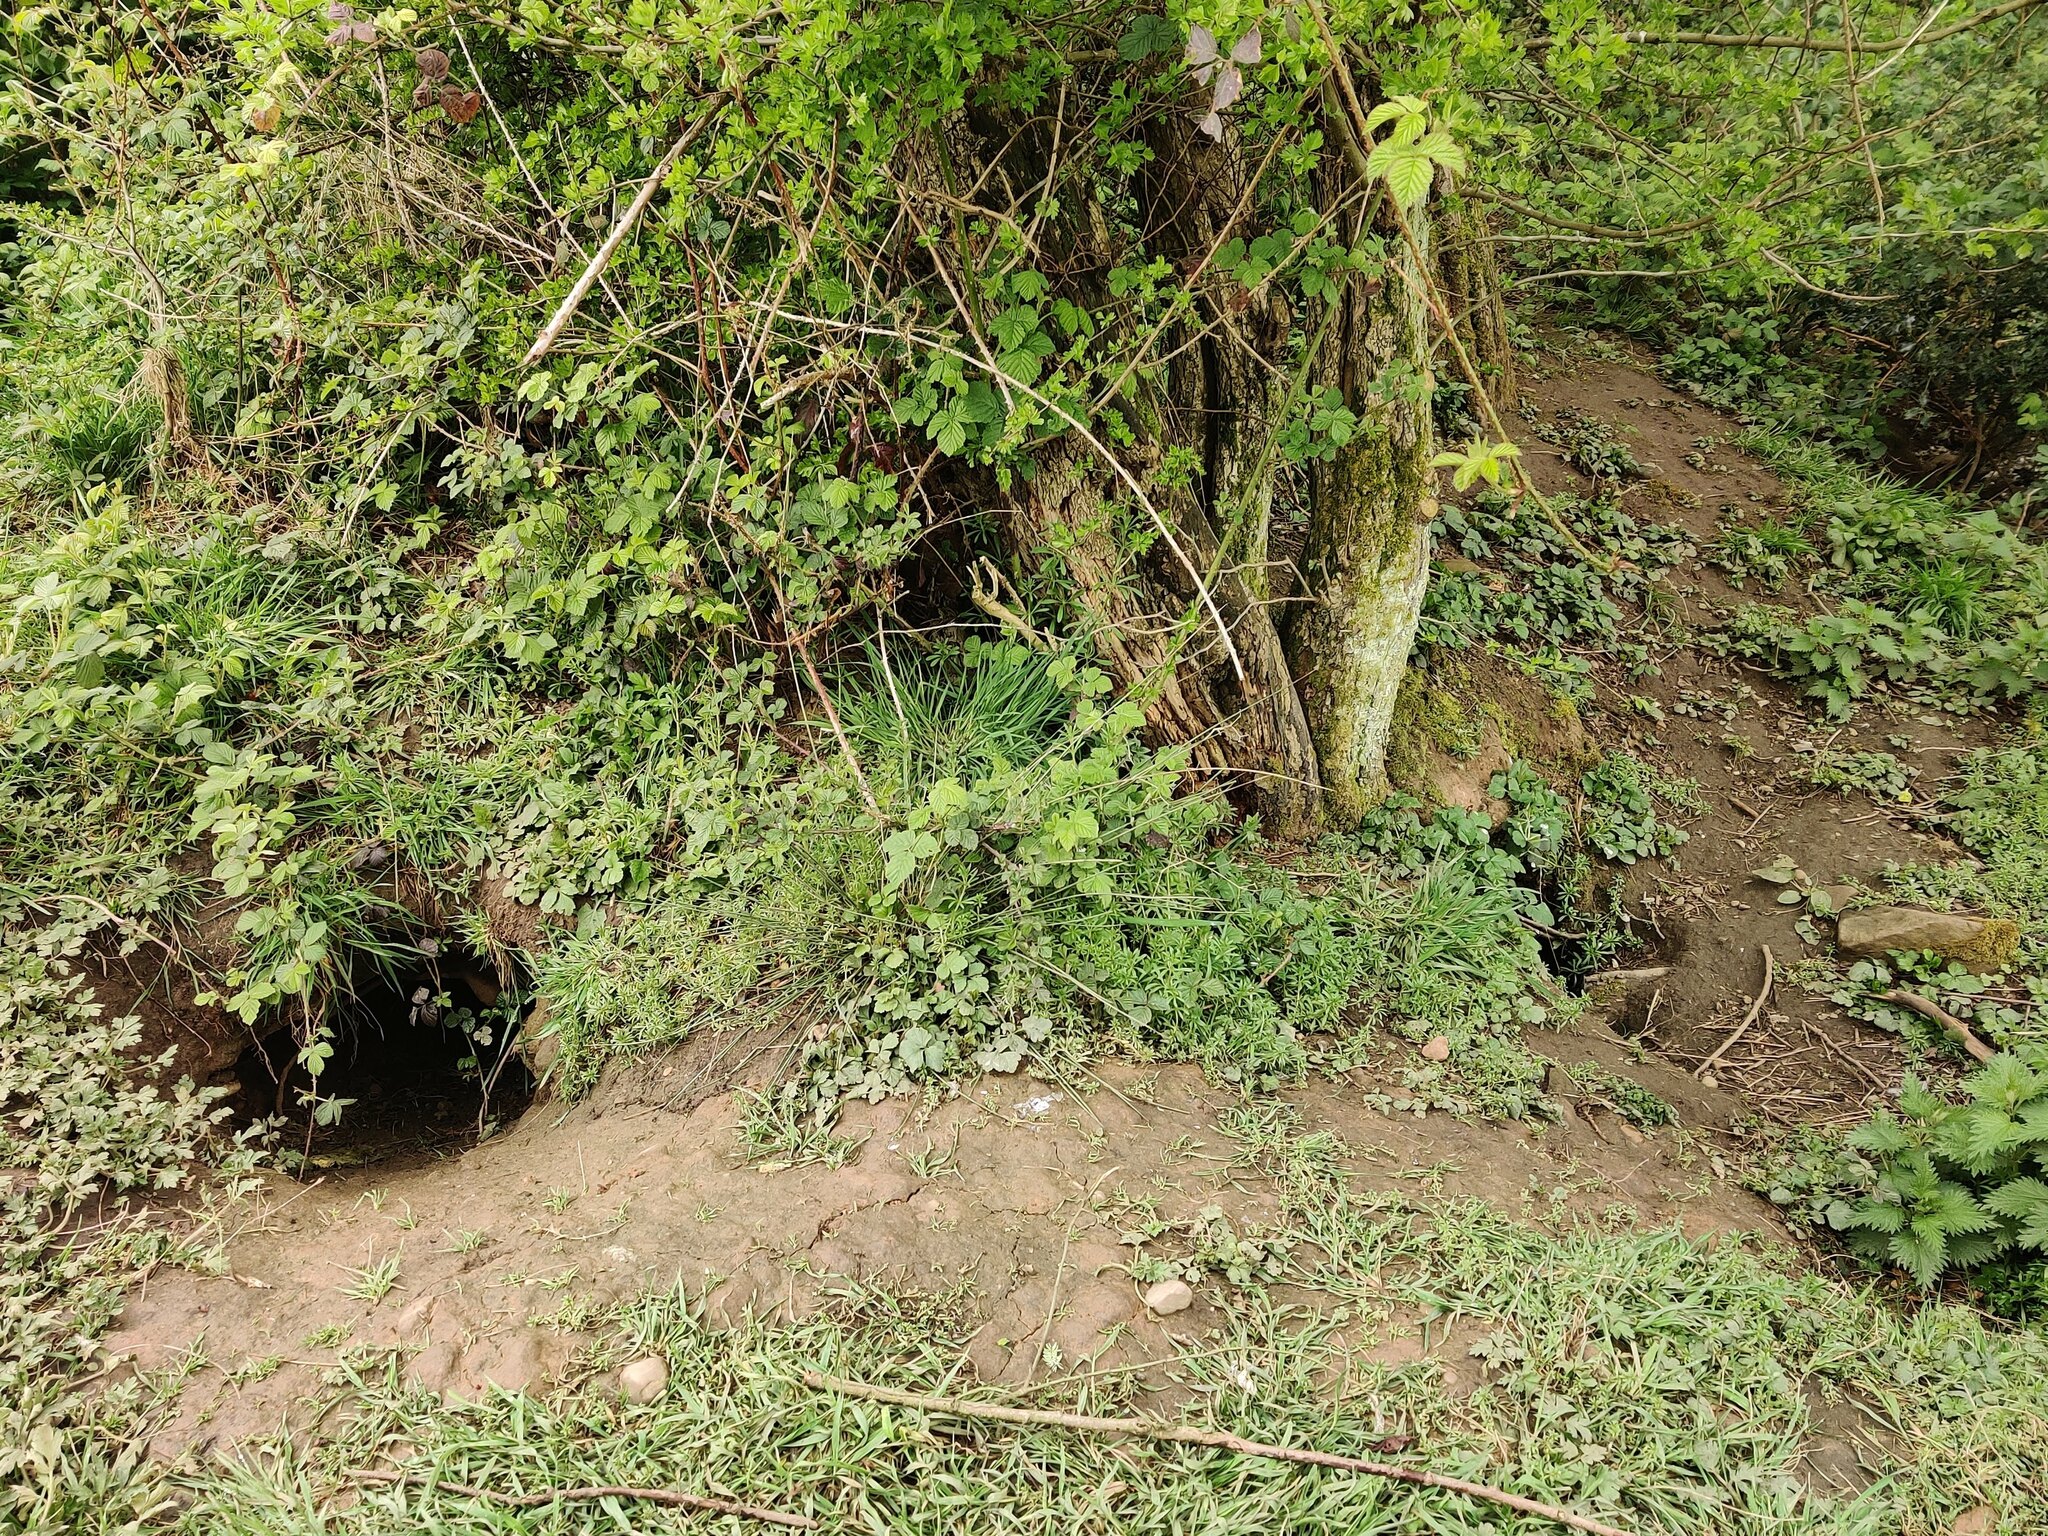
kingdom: Animalia
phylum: Chordata
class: Mammalia
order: Carnivora
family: Mustelidae
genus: Meles
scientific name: Meles meles
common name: Eurasian badger
